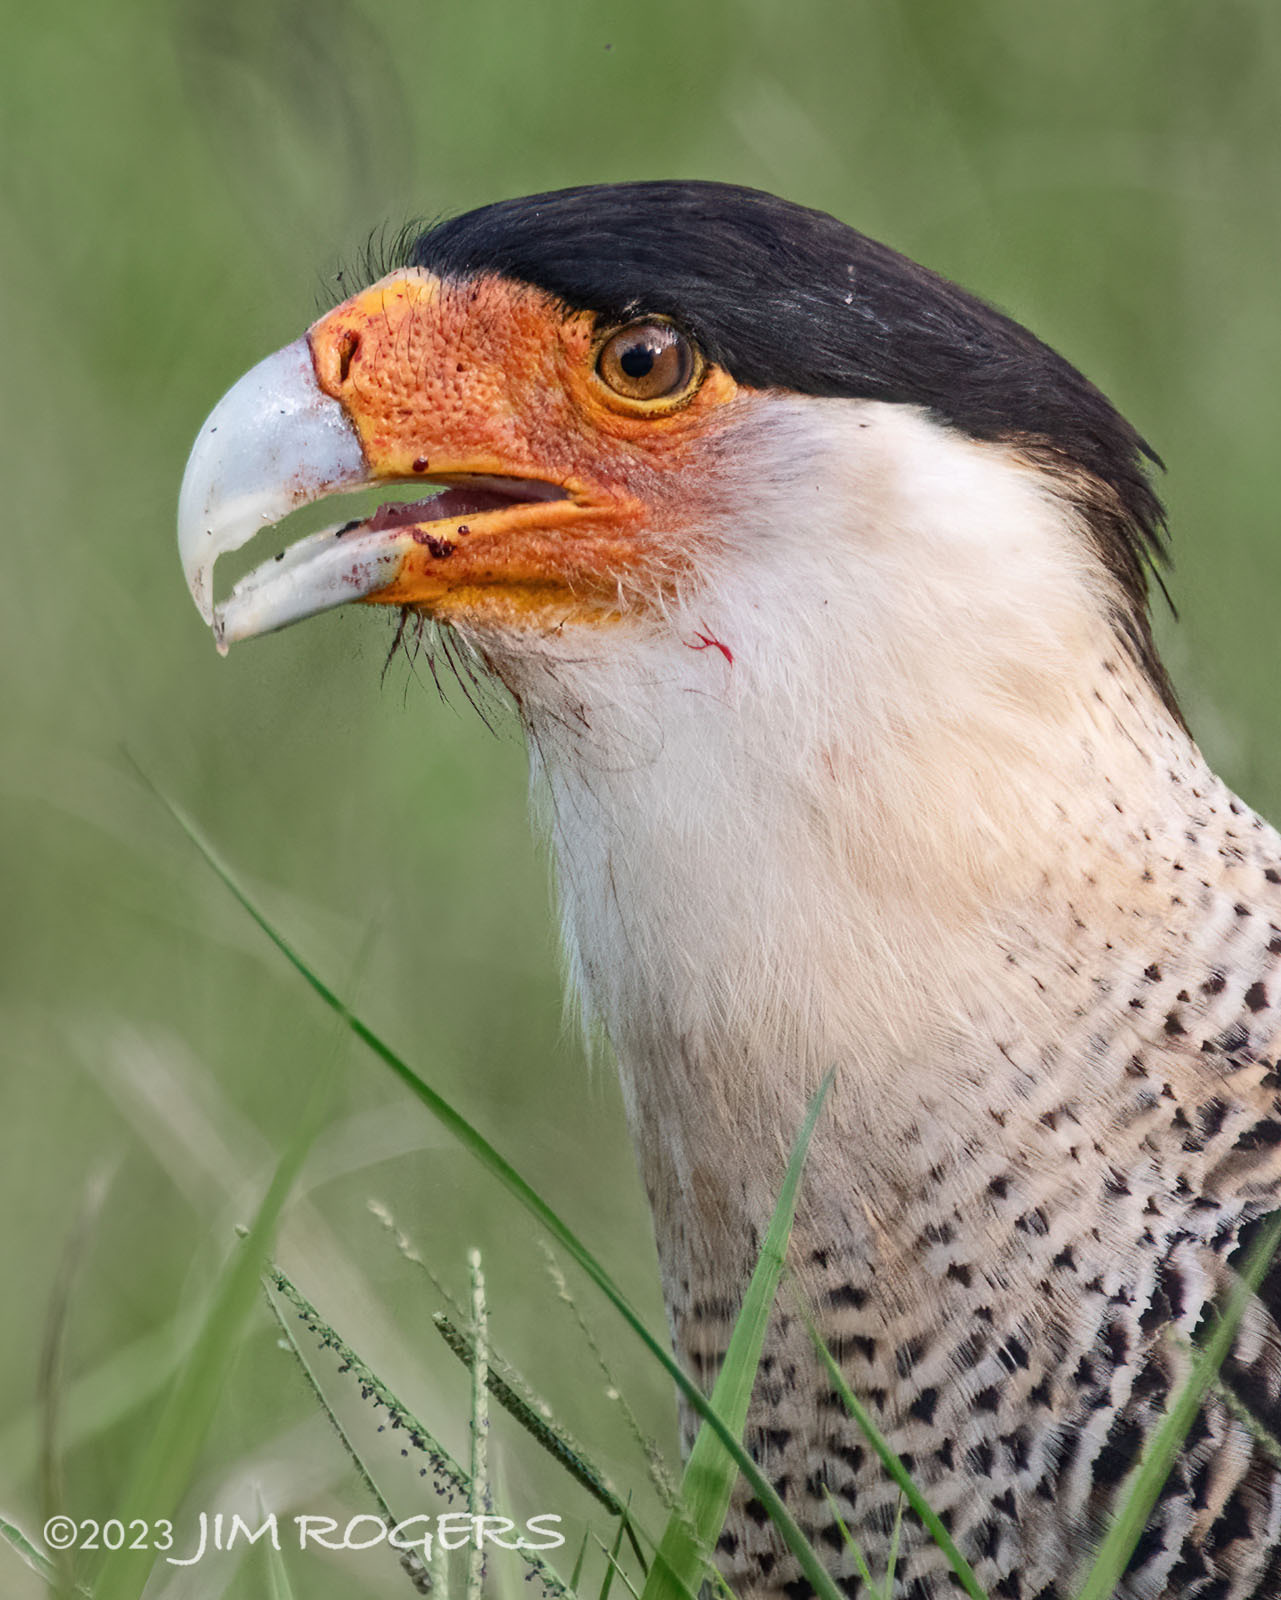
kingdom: Animalia
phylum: Chordata
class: Aves
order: Falconiformes
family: Falconidae
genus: Caracara
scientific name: Caracara plancus
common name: Southern caracara
